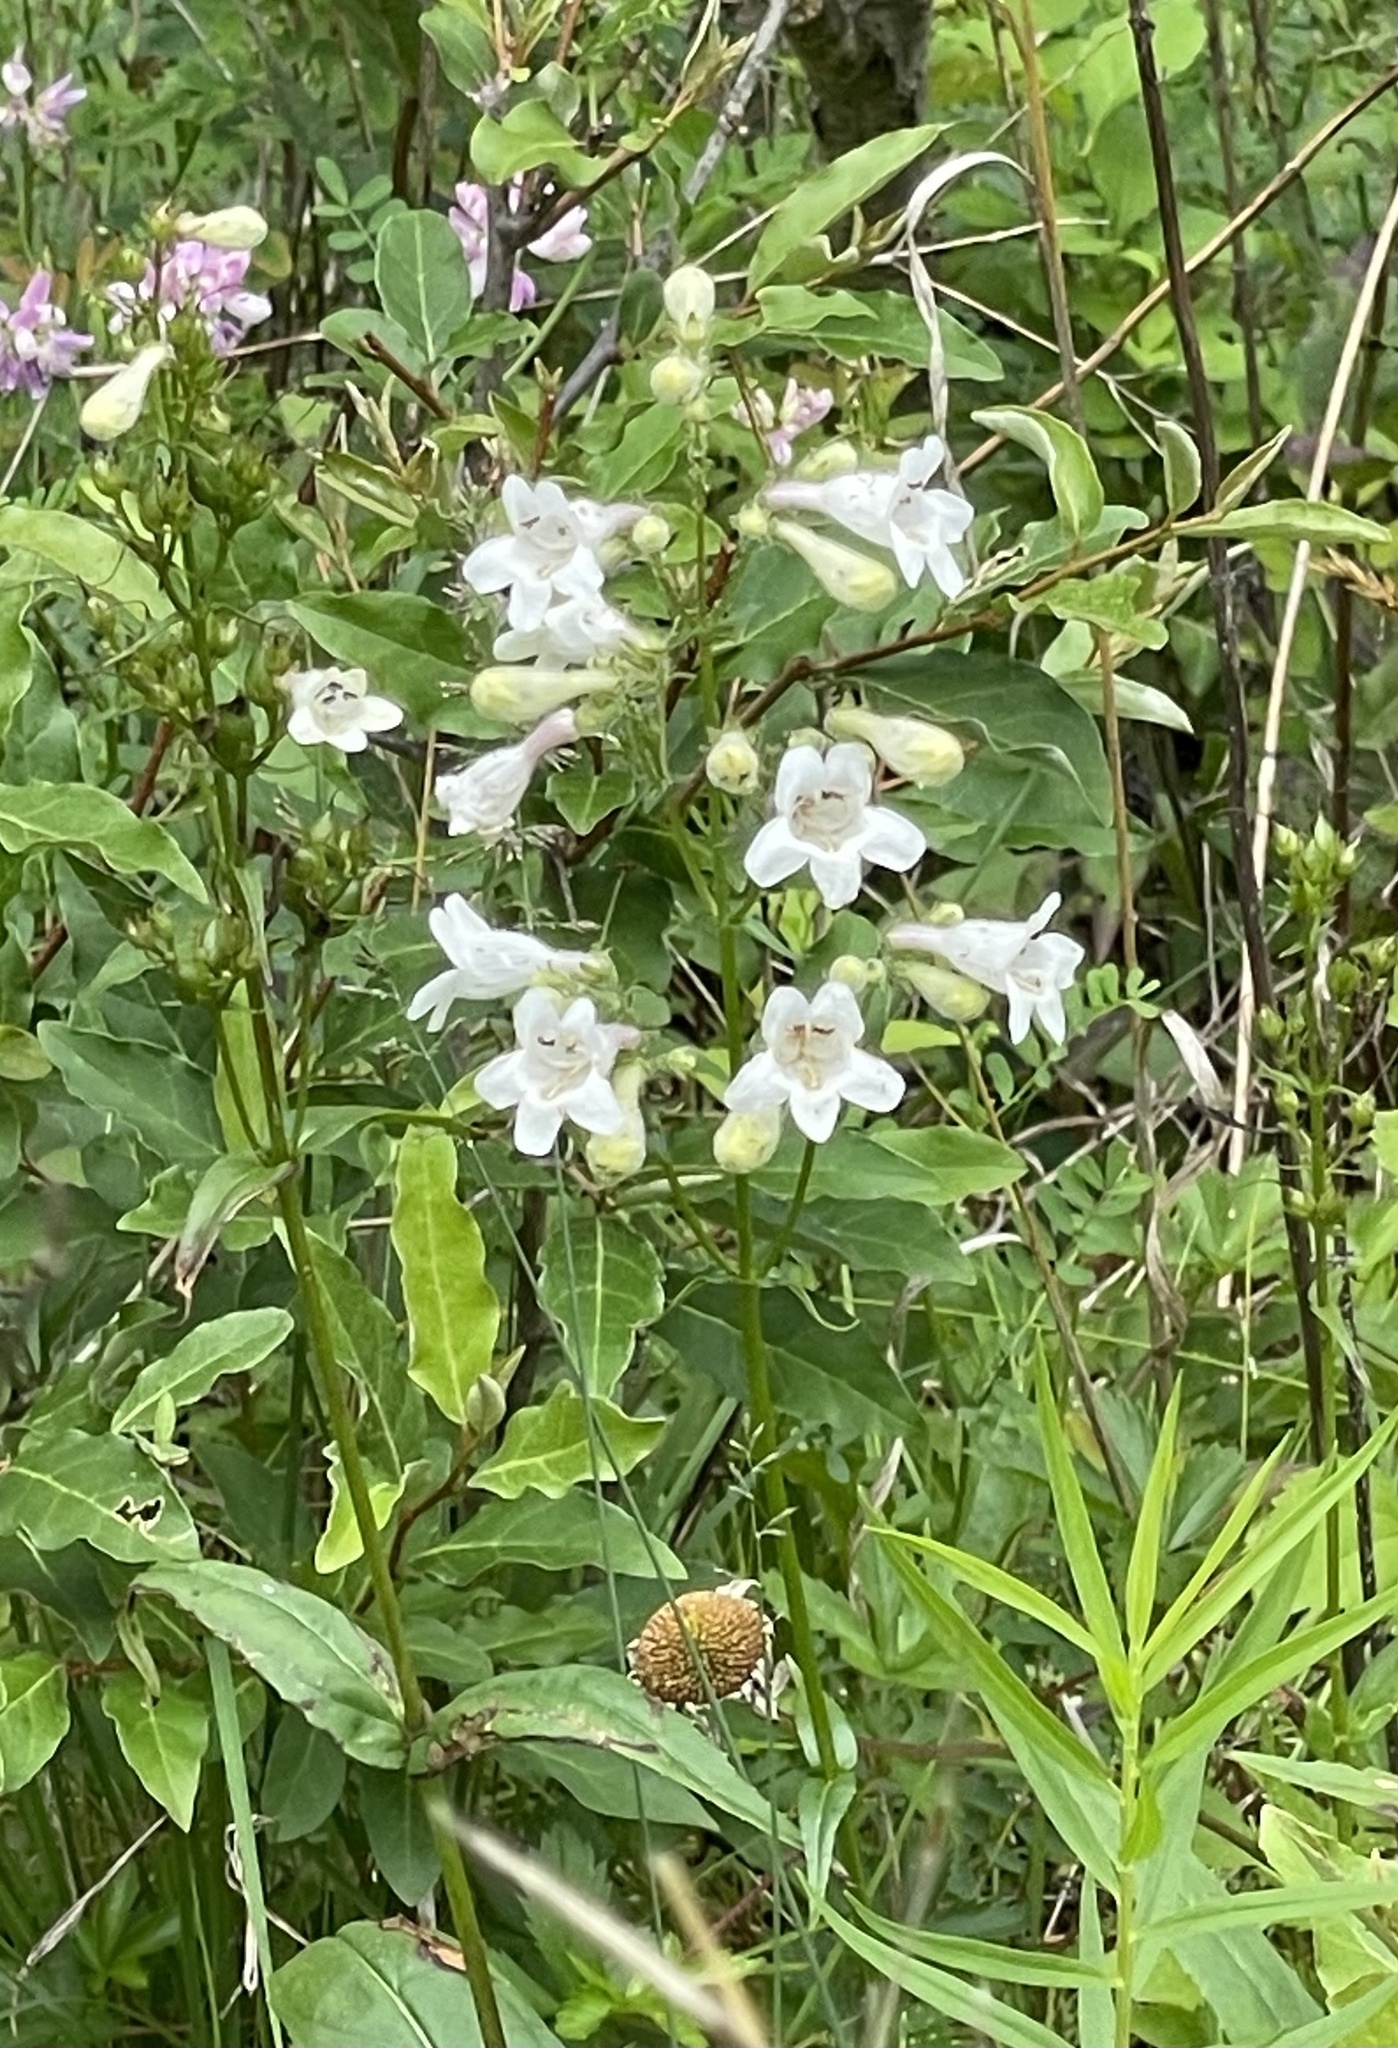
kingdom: Plantae
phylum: Tracheophyta
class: Magnoliopsida
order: Lamiales
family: Plantaginaceae
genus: Penstemon
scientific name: Penstemon digitalis
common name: Foxglove beardtongue
